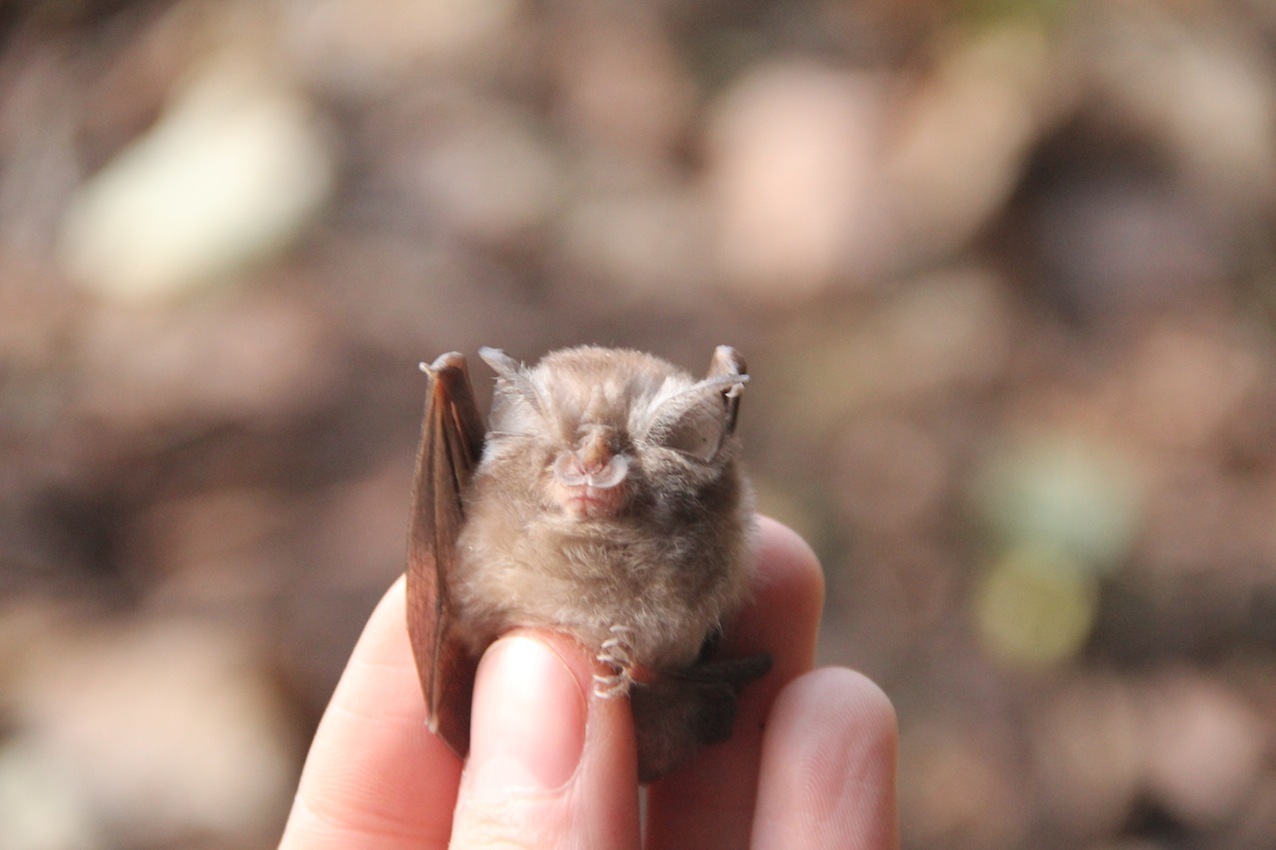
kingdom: Animalia
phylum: Chordata
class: Mammalia
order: Chiroptera
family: Rhinolophidae
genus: Rhinolophus
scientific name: Rhinolophus hipposideros
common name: Lesser horseshoe bat
